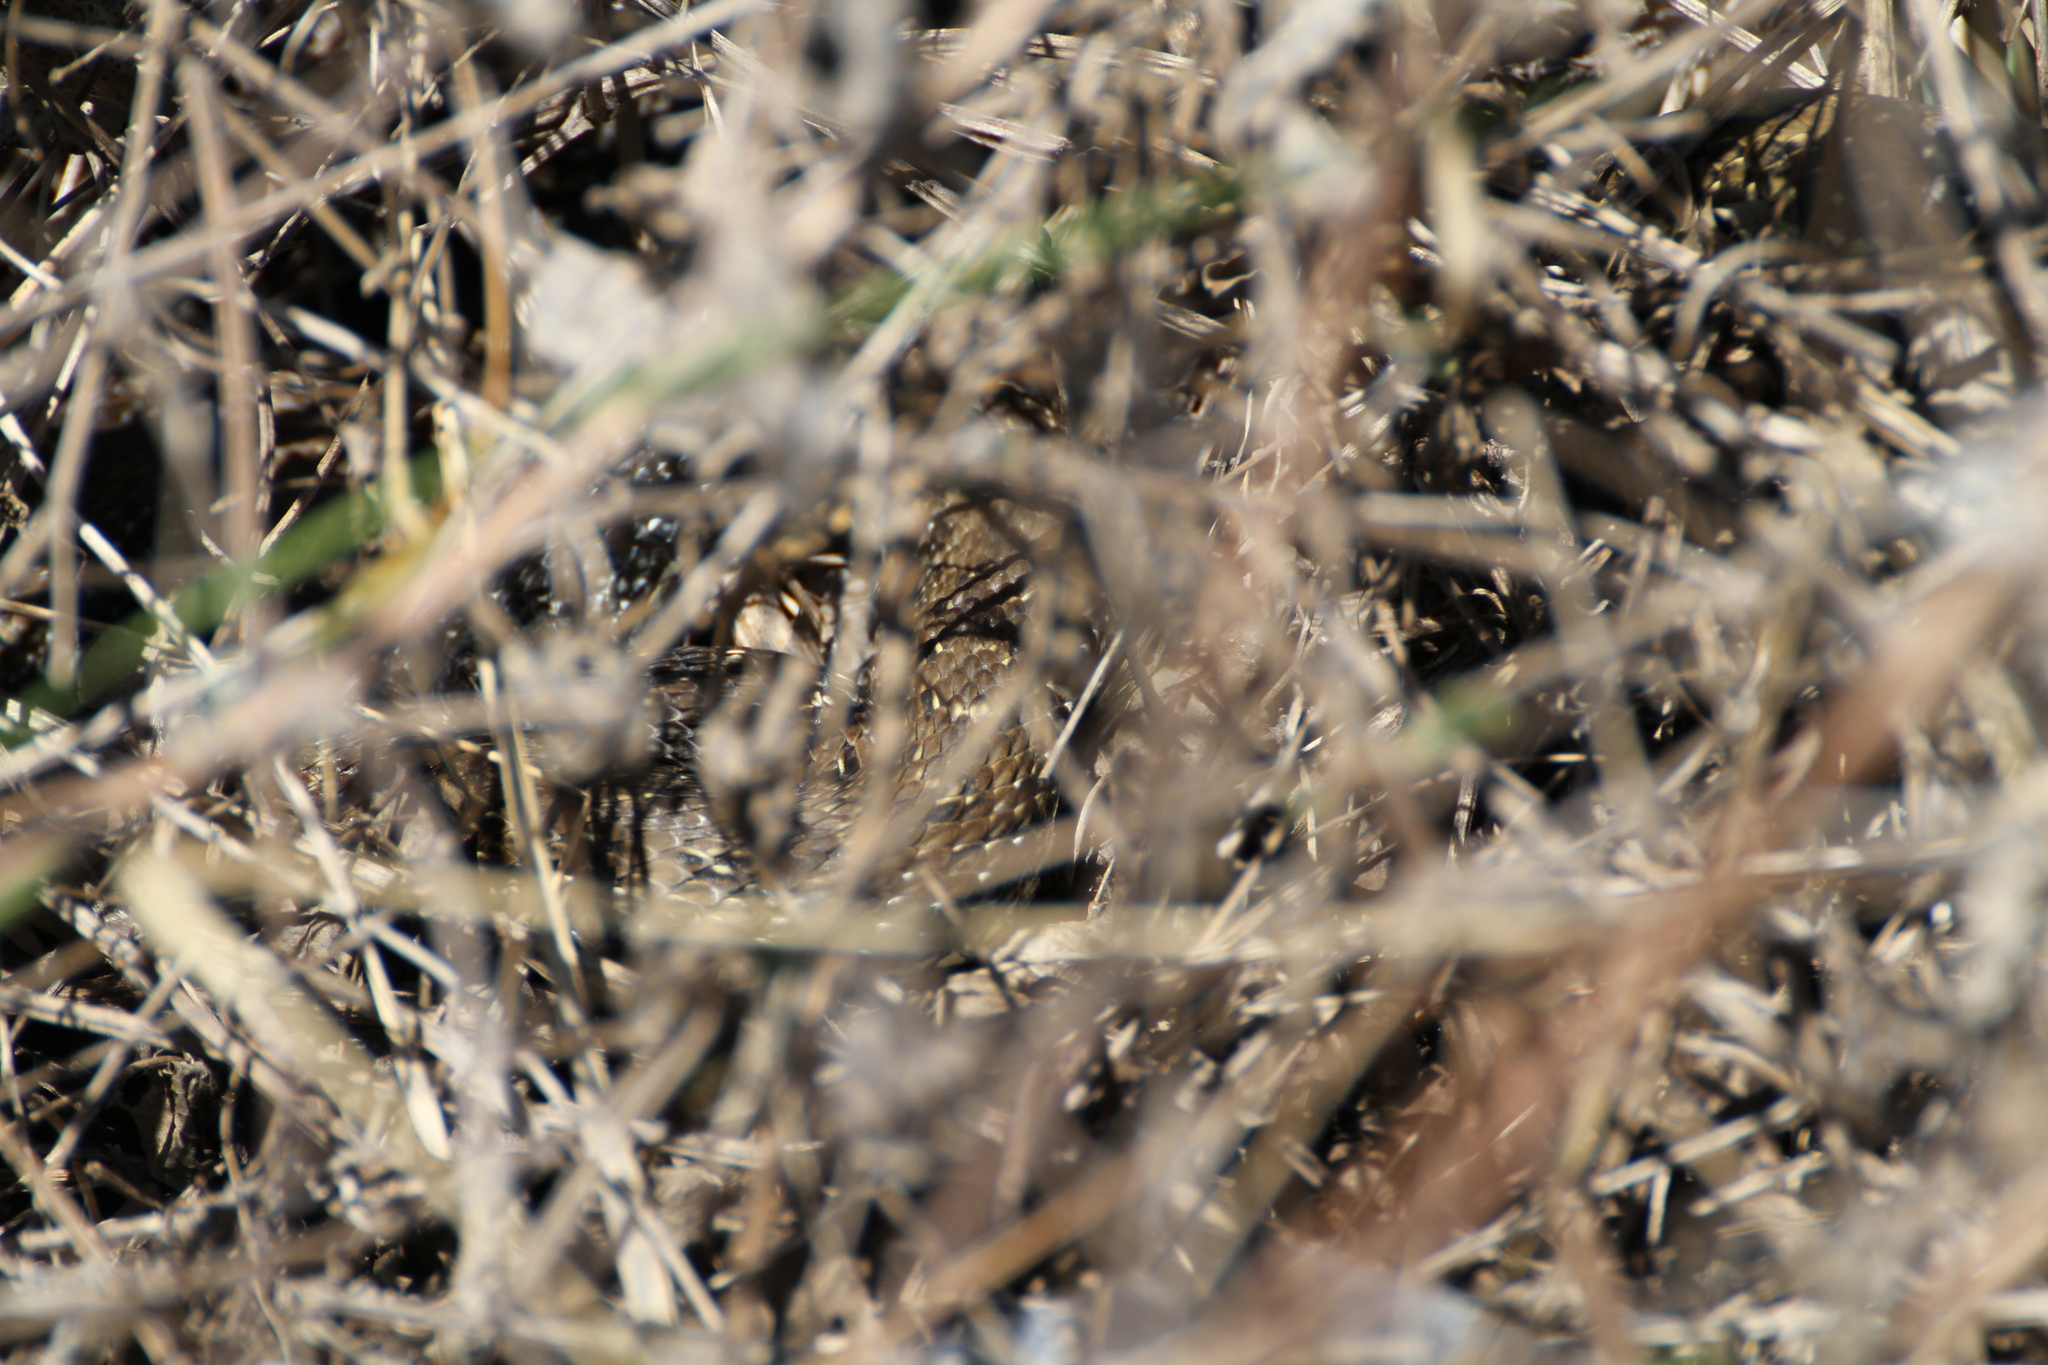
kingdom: Animalia
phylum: Chordata
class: Squamata
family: Psammophiidae
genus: Malpolon
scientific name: Malpolon monspessulanus
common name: Montpellier snake
